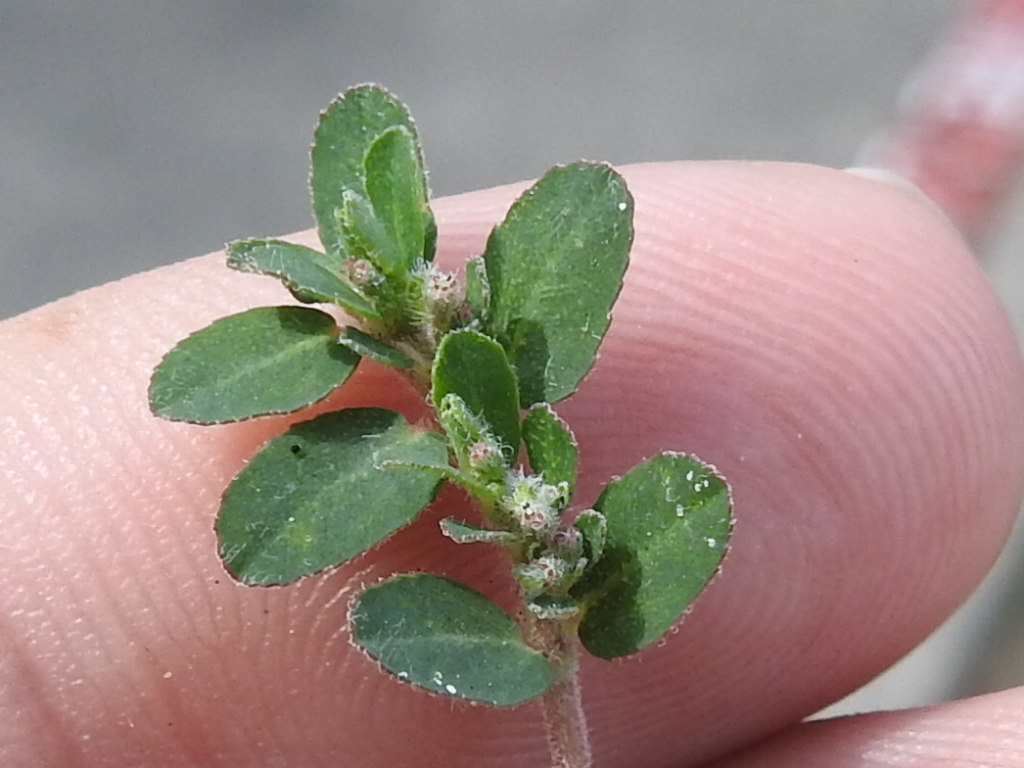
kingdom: Plantae
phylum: Tracheophyta
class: Magnoliopsida
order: Malpighiales
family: Euphorbiaceae
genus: Euphorbia
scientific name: Euphorbia prostrata
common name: Prostrate sandmat
